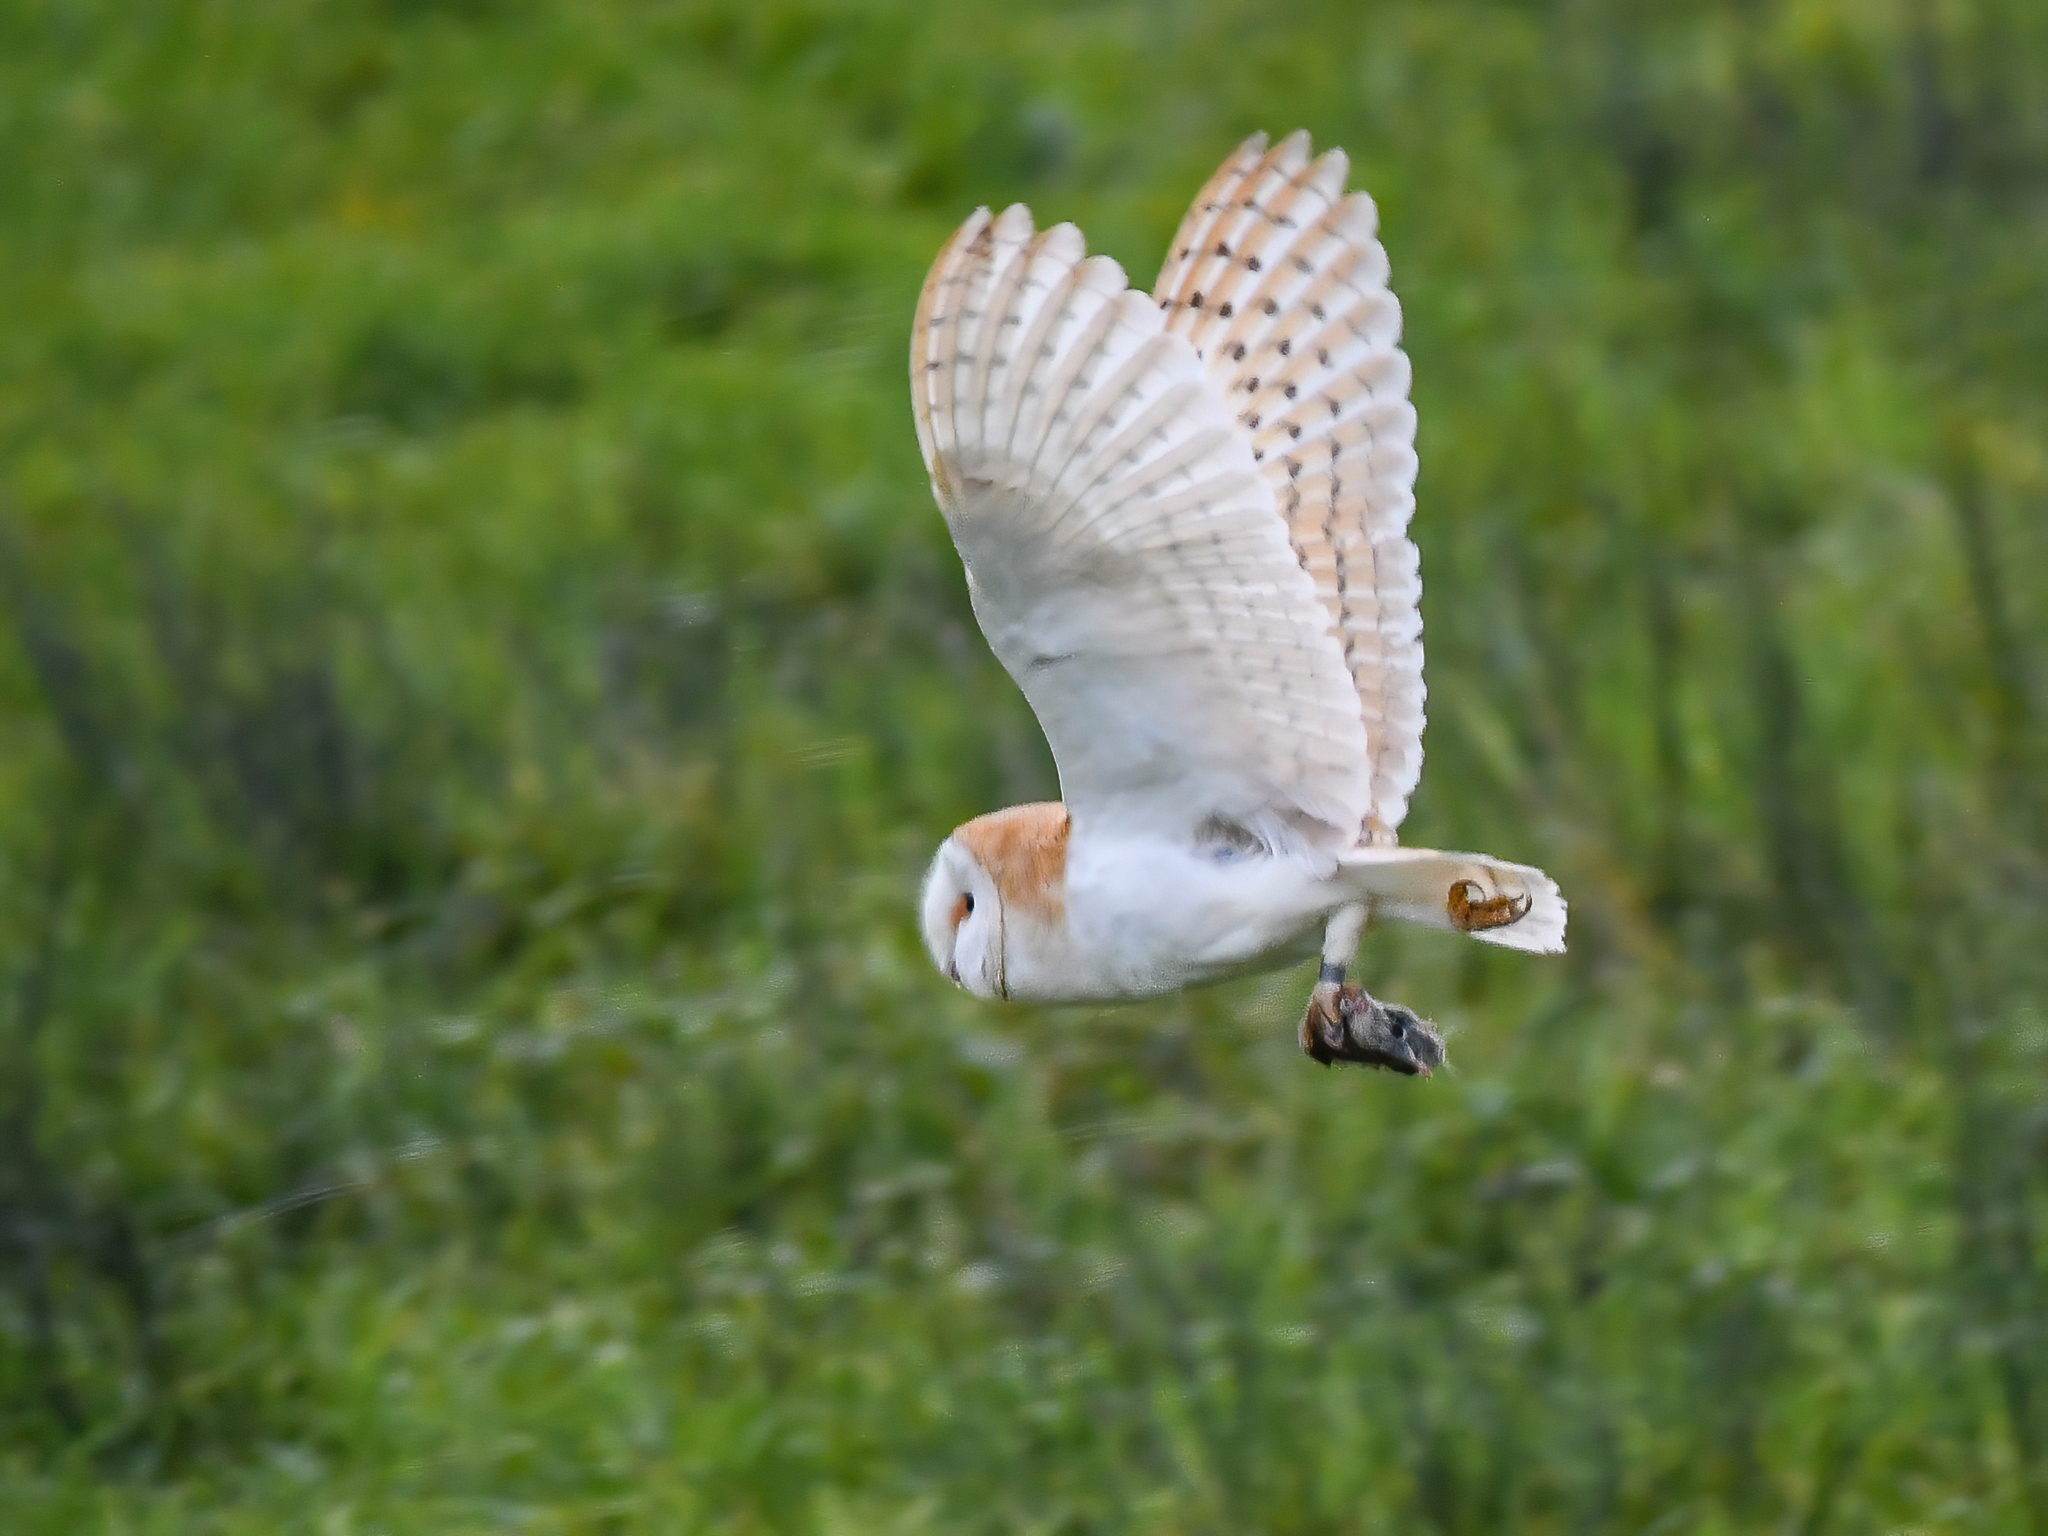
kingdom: Animalia
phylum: Chordata
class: Aves
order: Strigiformes
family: Tytonidae
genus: Tyto
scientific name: Tyto alba
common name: Barn owl
